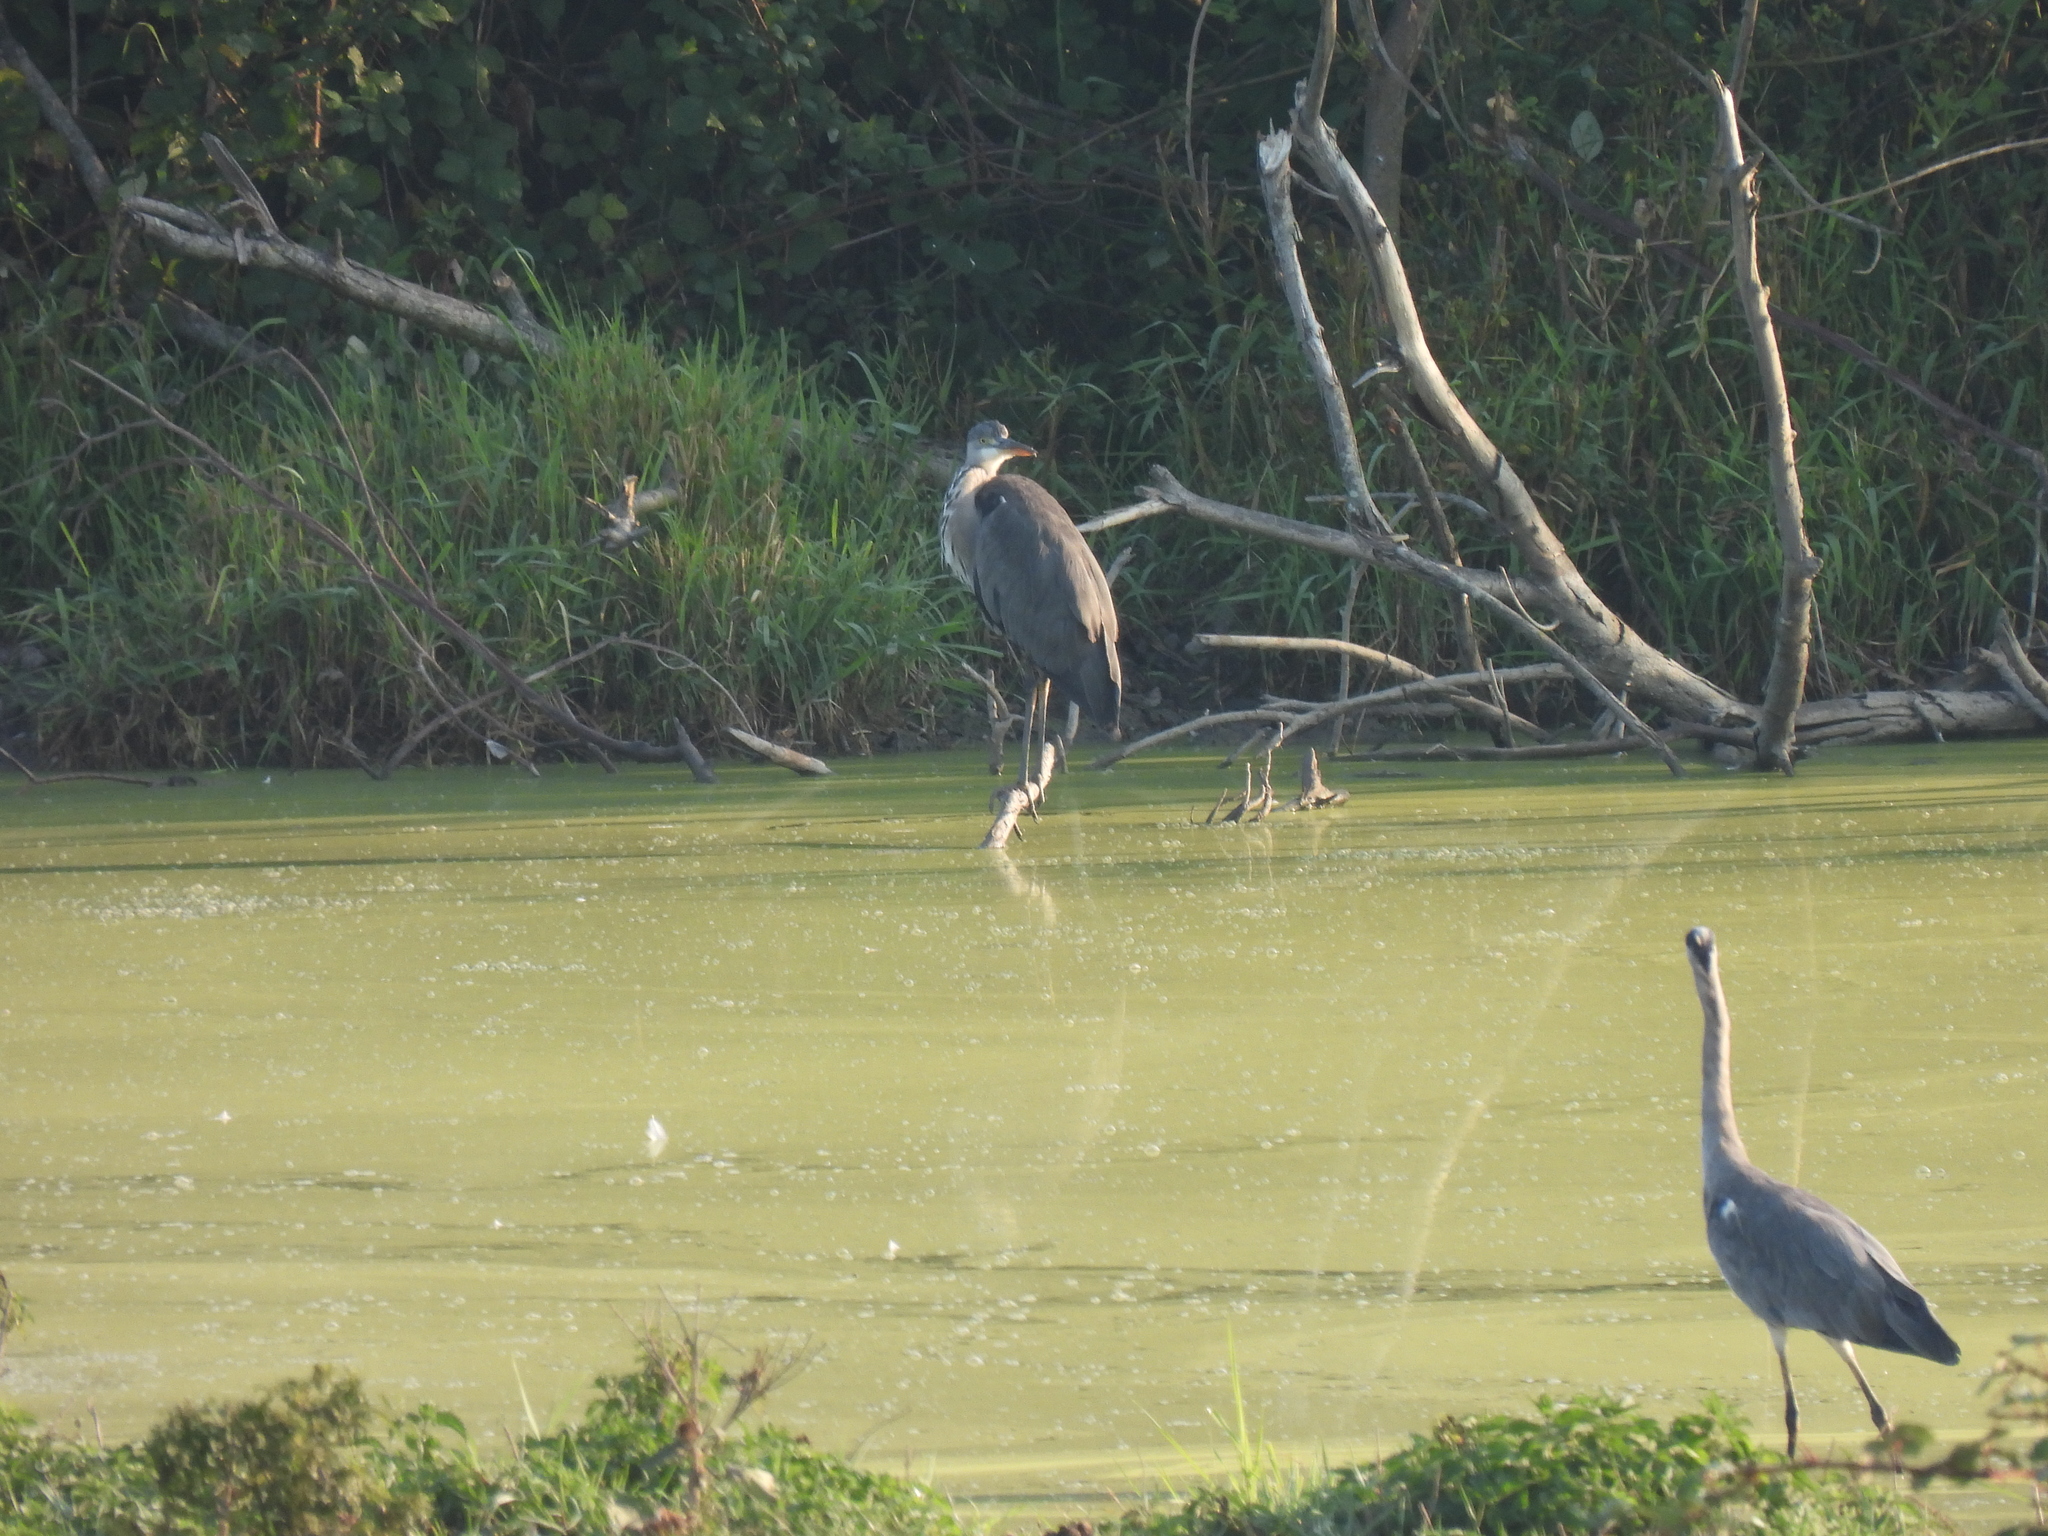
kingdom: Animalia
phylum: Chordata
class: Aves
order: Pelecaniformes
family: Ardeidae
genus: Ardea
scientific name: Ardea cinerea
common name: Grey heron
